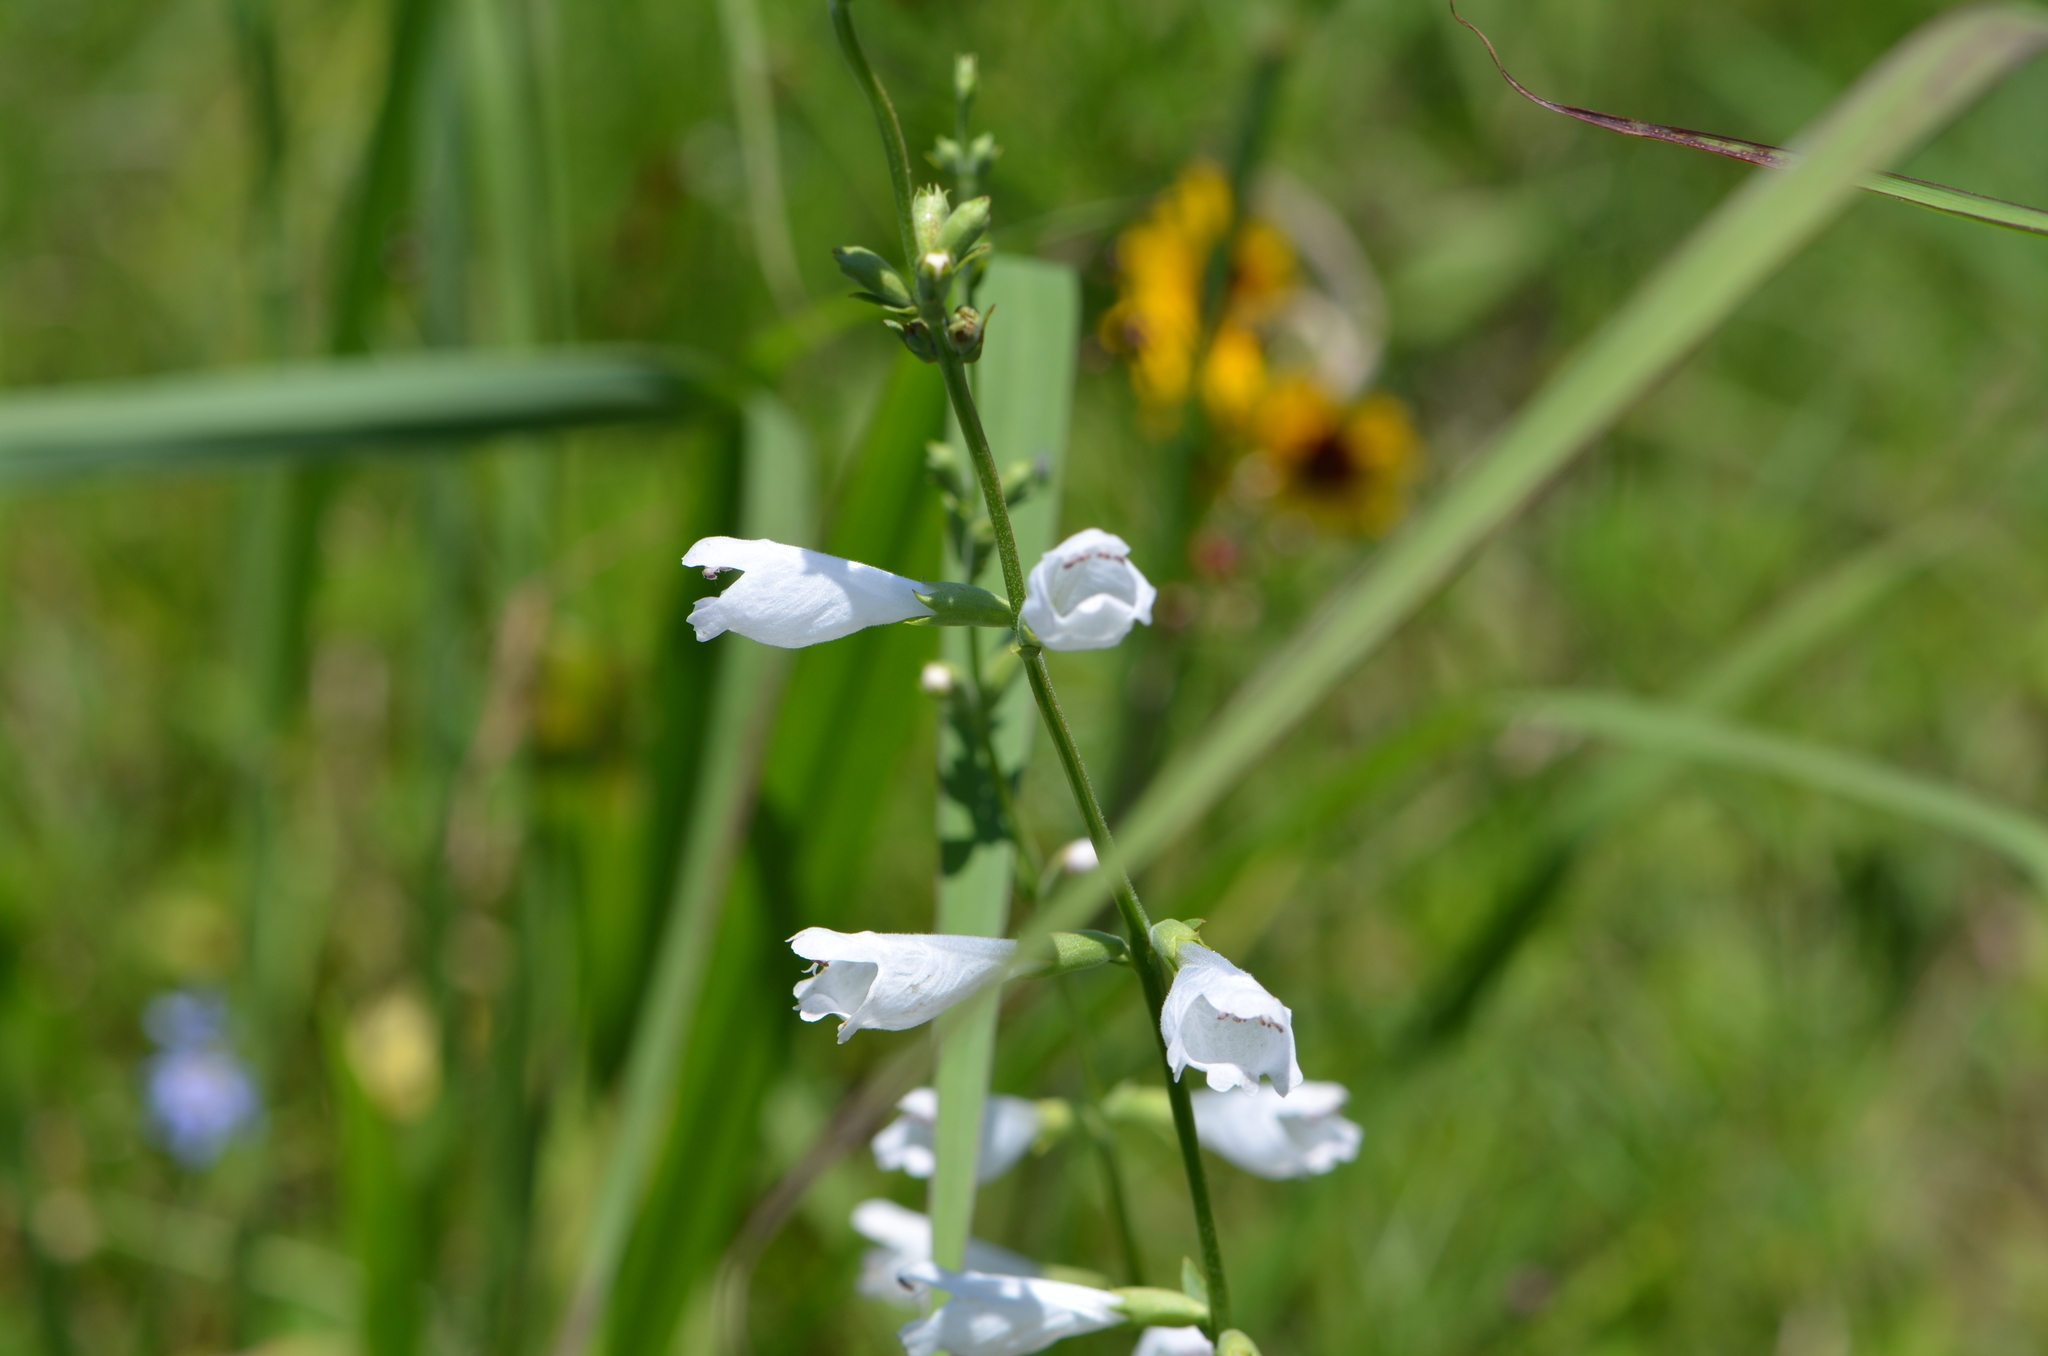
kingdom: Plantae
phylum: Tracheophyta
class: Magnoliopsida
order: Lamiales
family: Lamiaceae
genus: Physostegia
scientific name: Physostegia angustifolia
